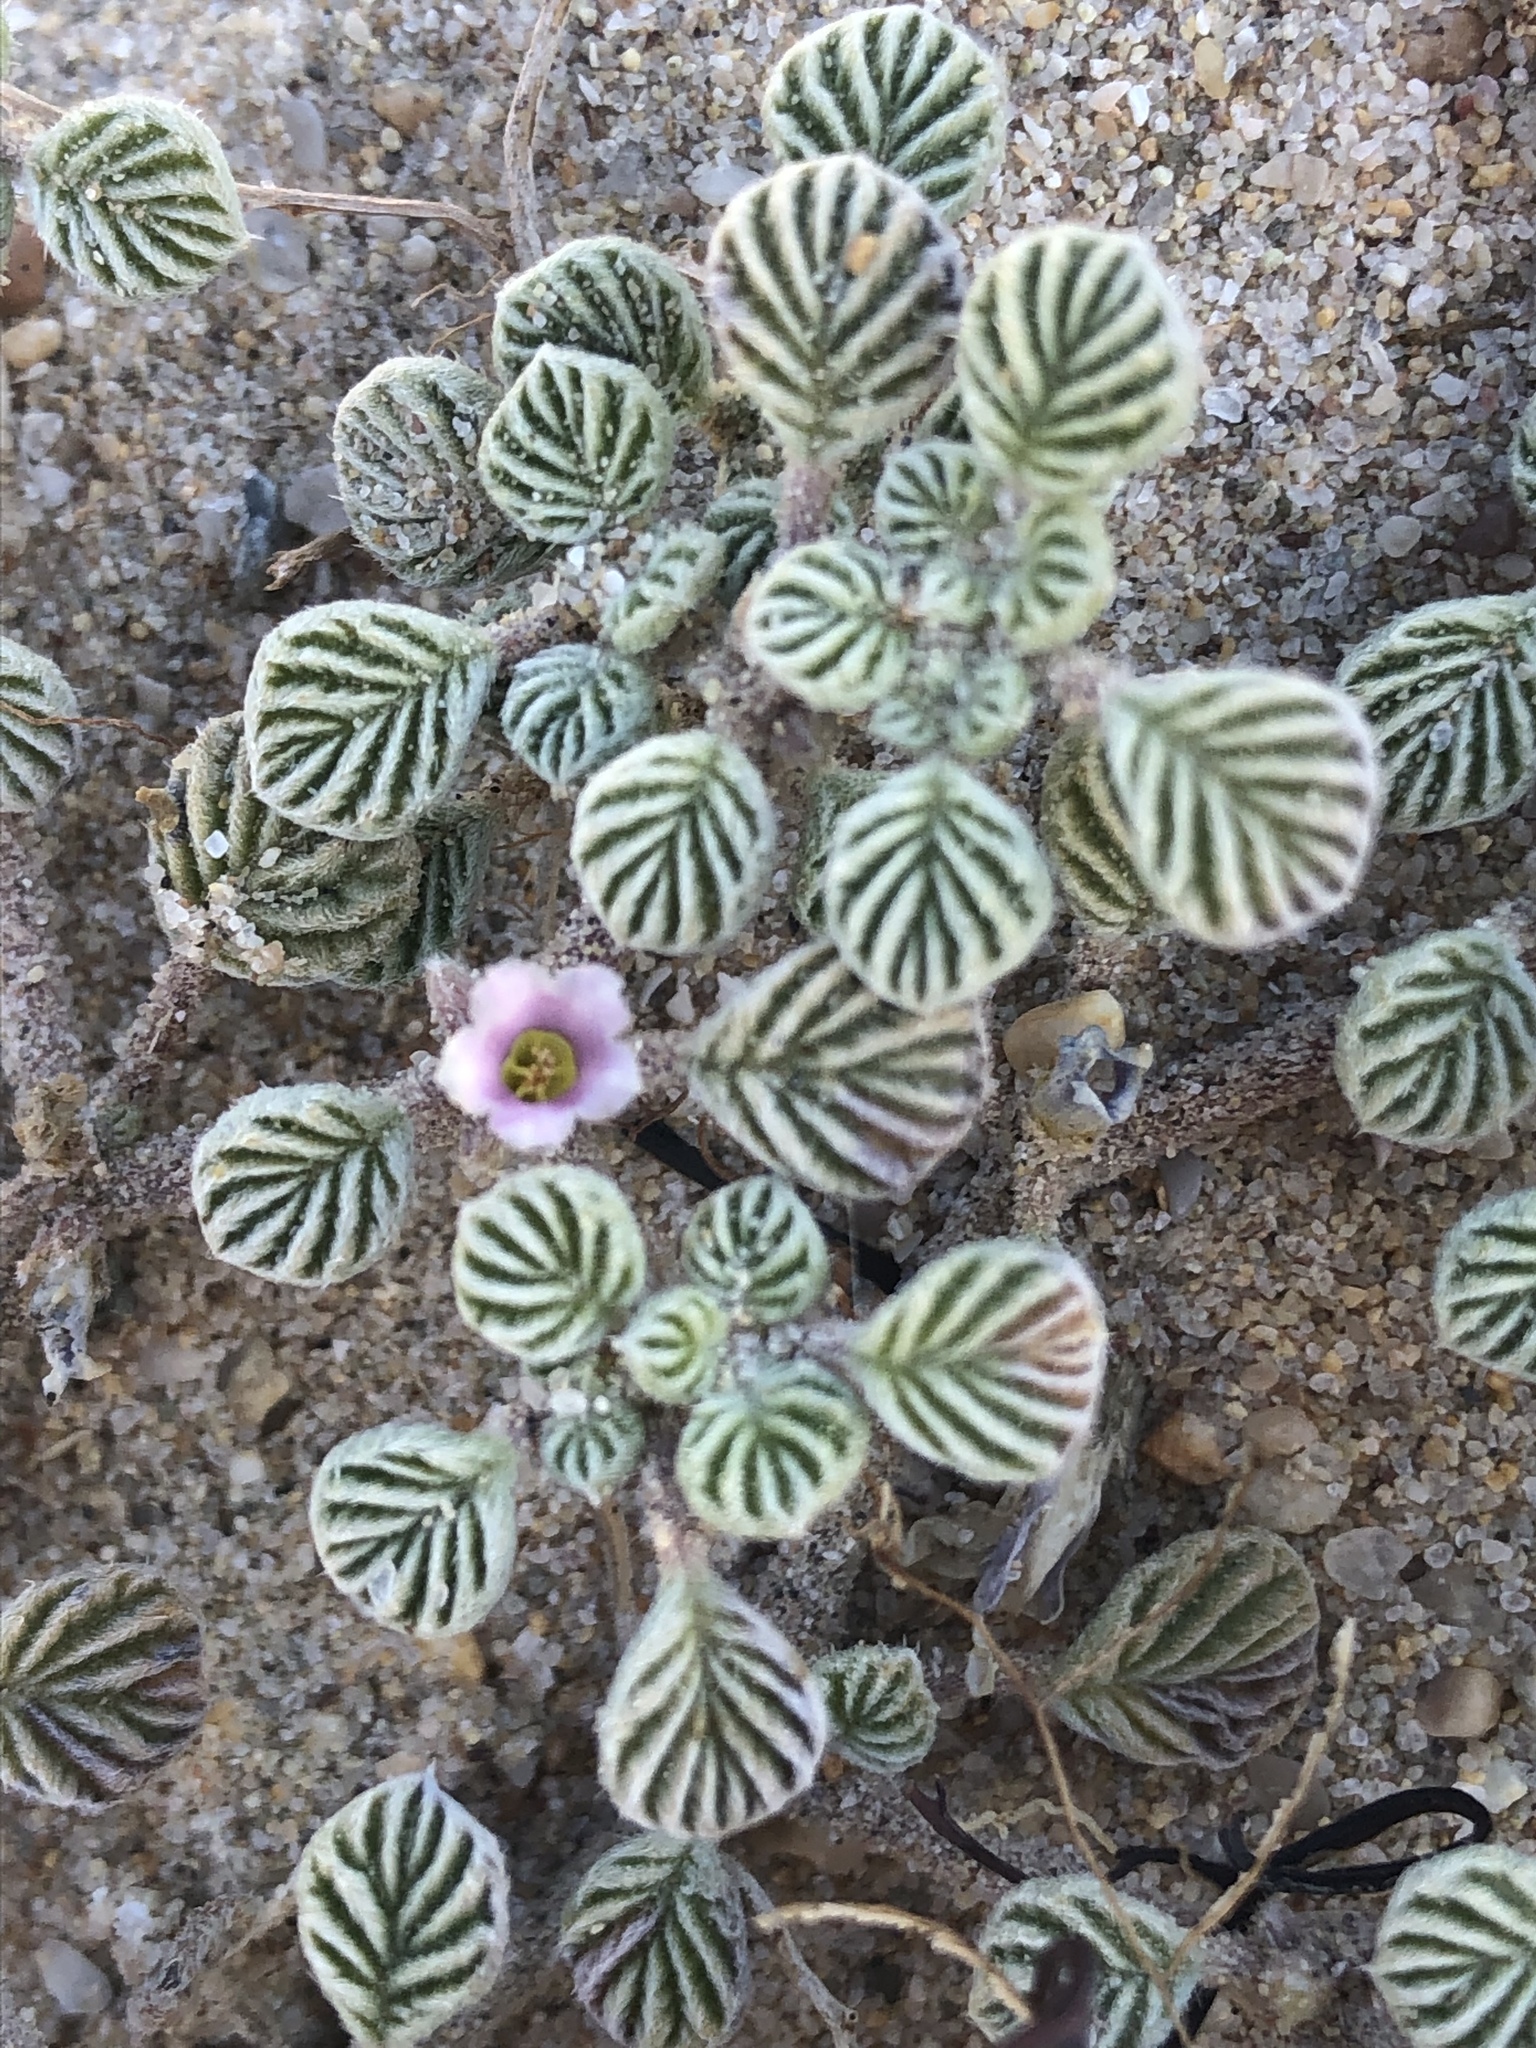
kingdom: Plantae
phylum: Tracheophyta
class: Magnoliopsida
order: Boraginales
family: Ehretiaceae
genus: Tiquilia
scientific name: Tiquilia plicata
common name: Fan-leaf tiquilia
